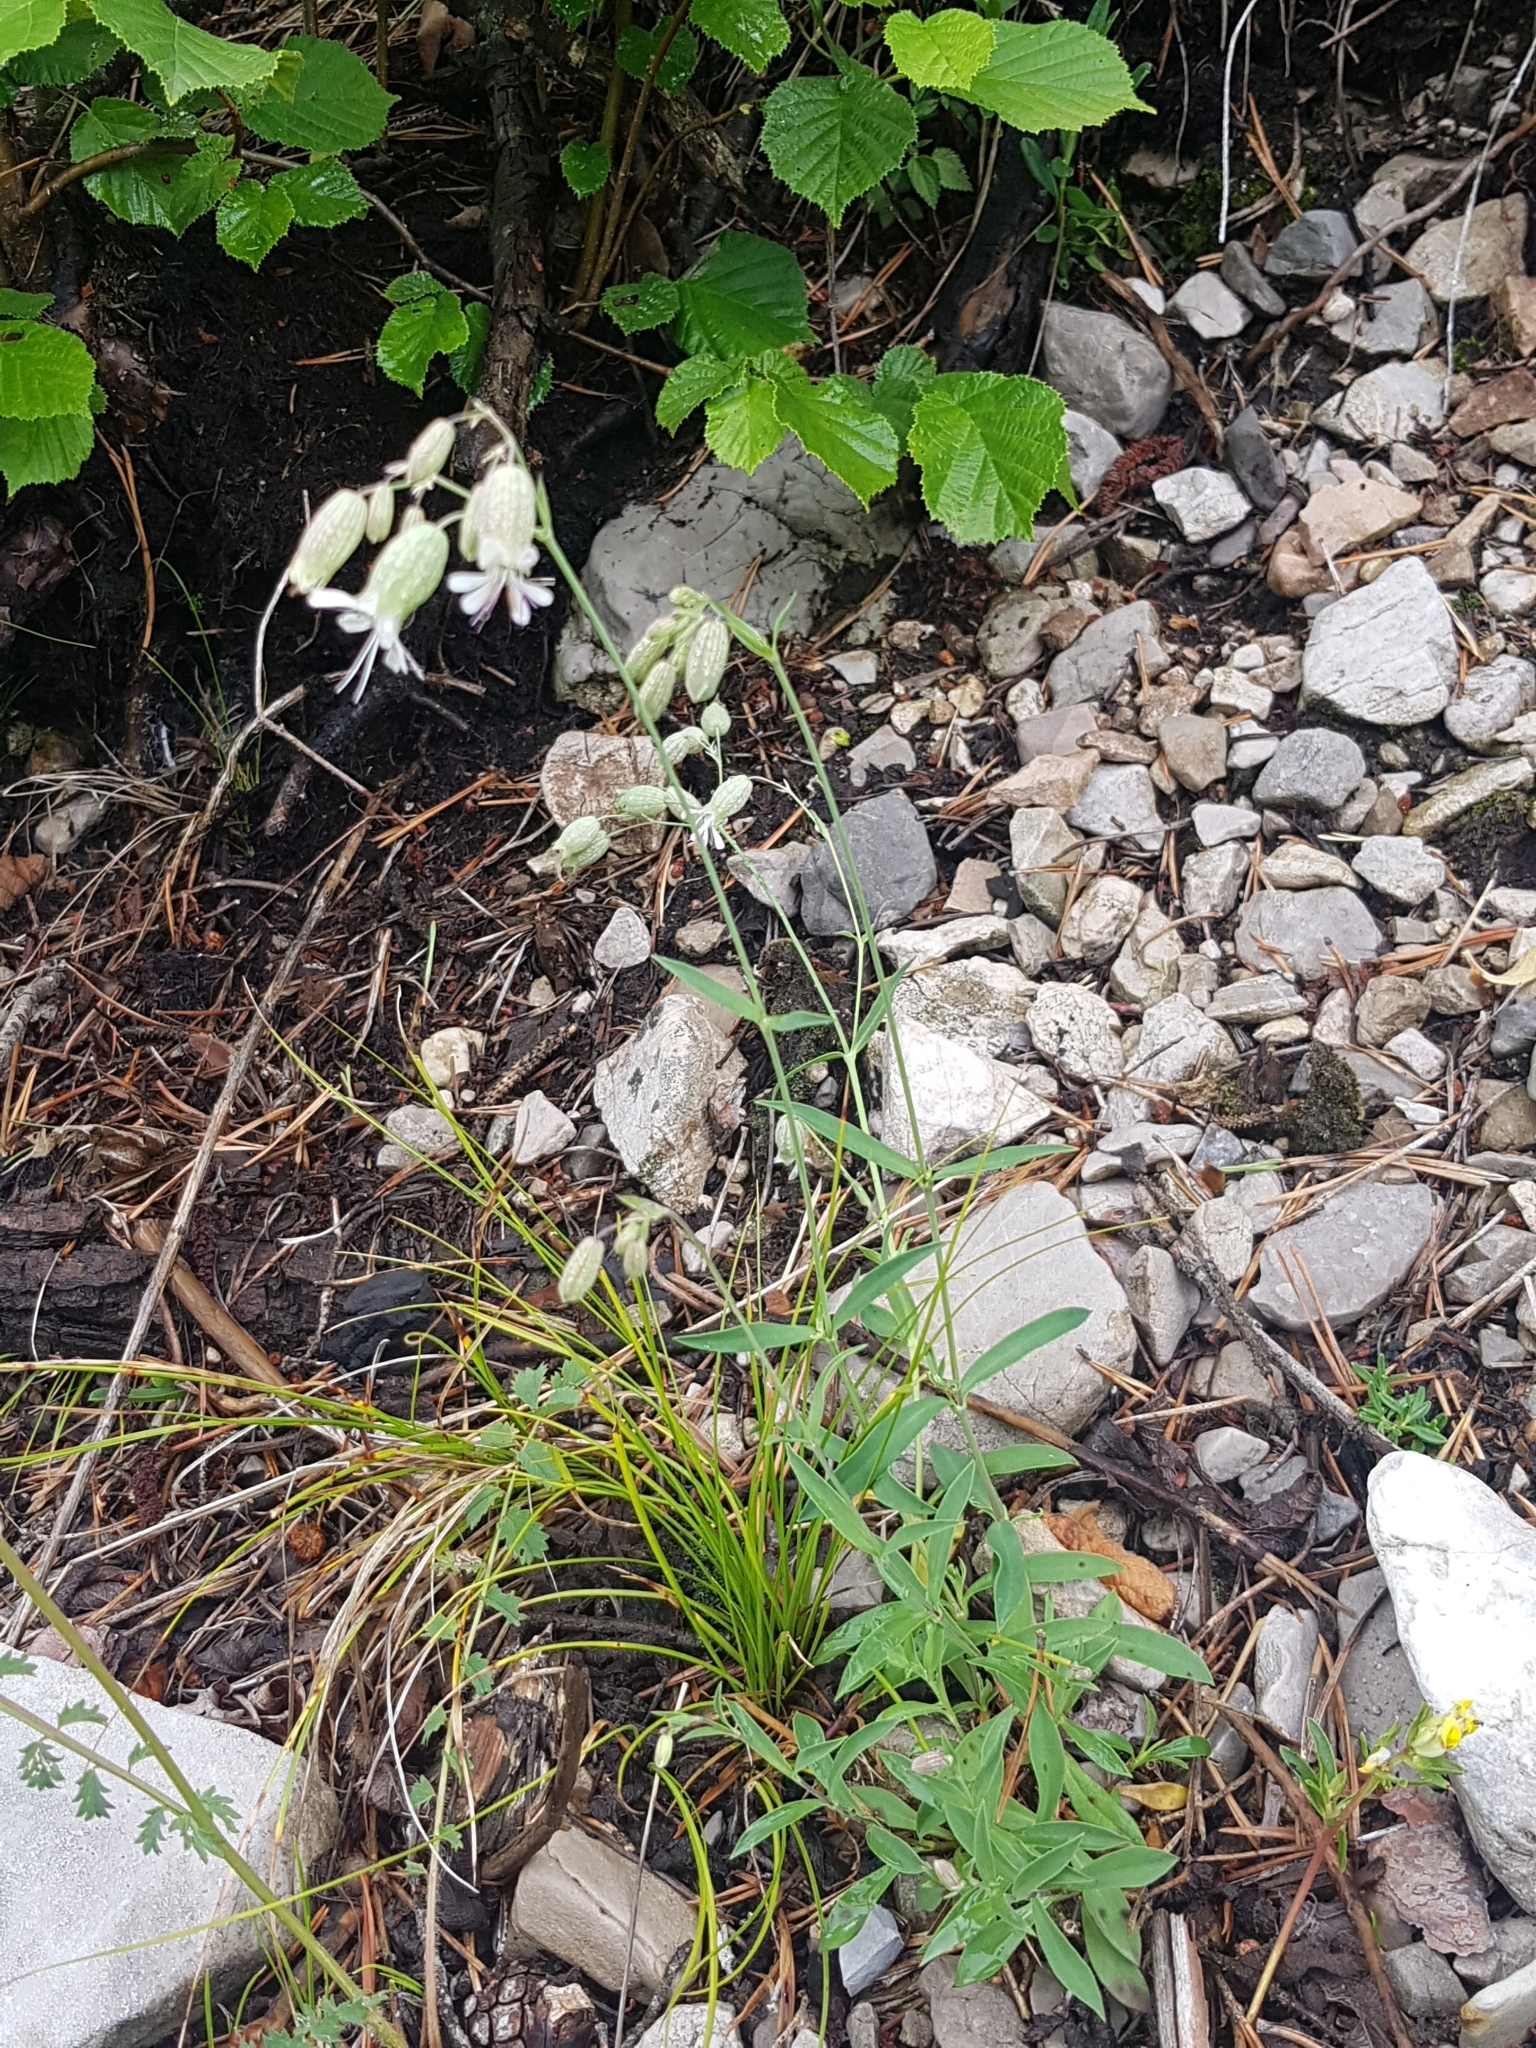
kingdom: Plantae
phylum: Tracheophyta
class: Magnoliopsida
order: Caryophyllales
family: Caryophyllaceae
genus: Silene
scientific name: Silene vulgaris
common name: Bladder campion
